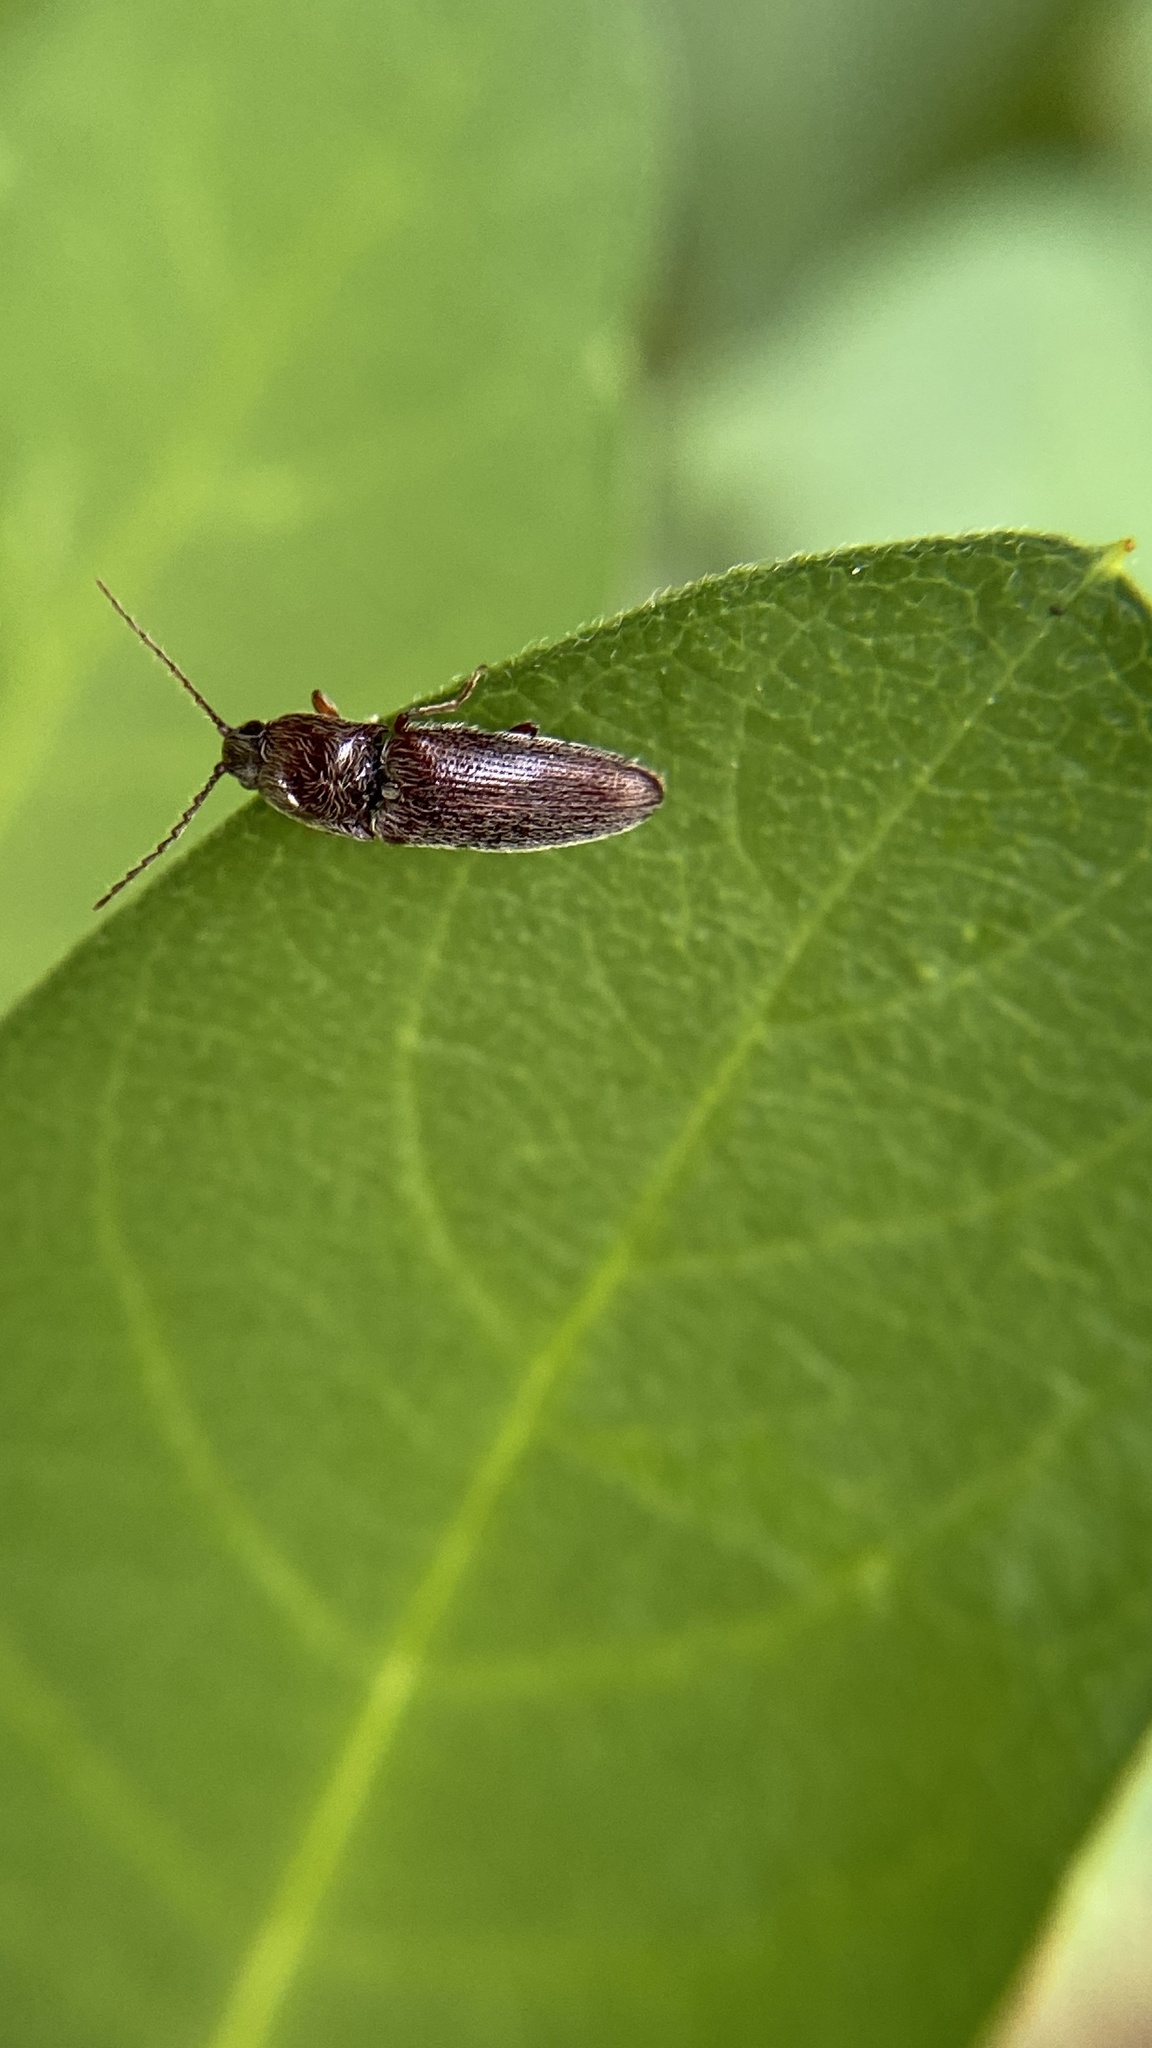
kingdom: Animalia
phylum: Arthropoda
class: Insecta
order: Coleoptera
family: Elateridae
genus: Melanotus
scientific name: Melanotus americanus
